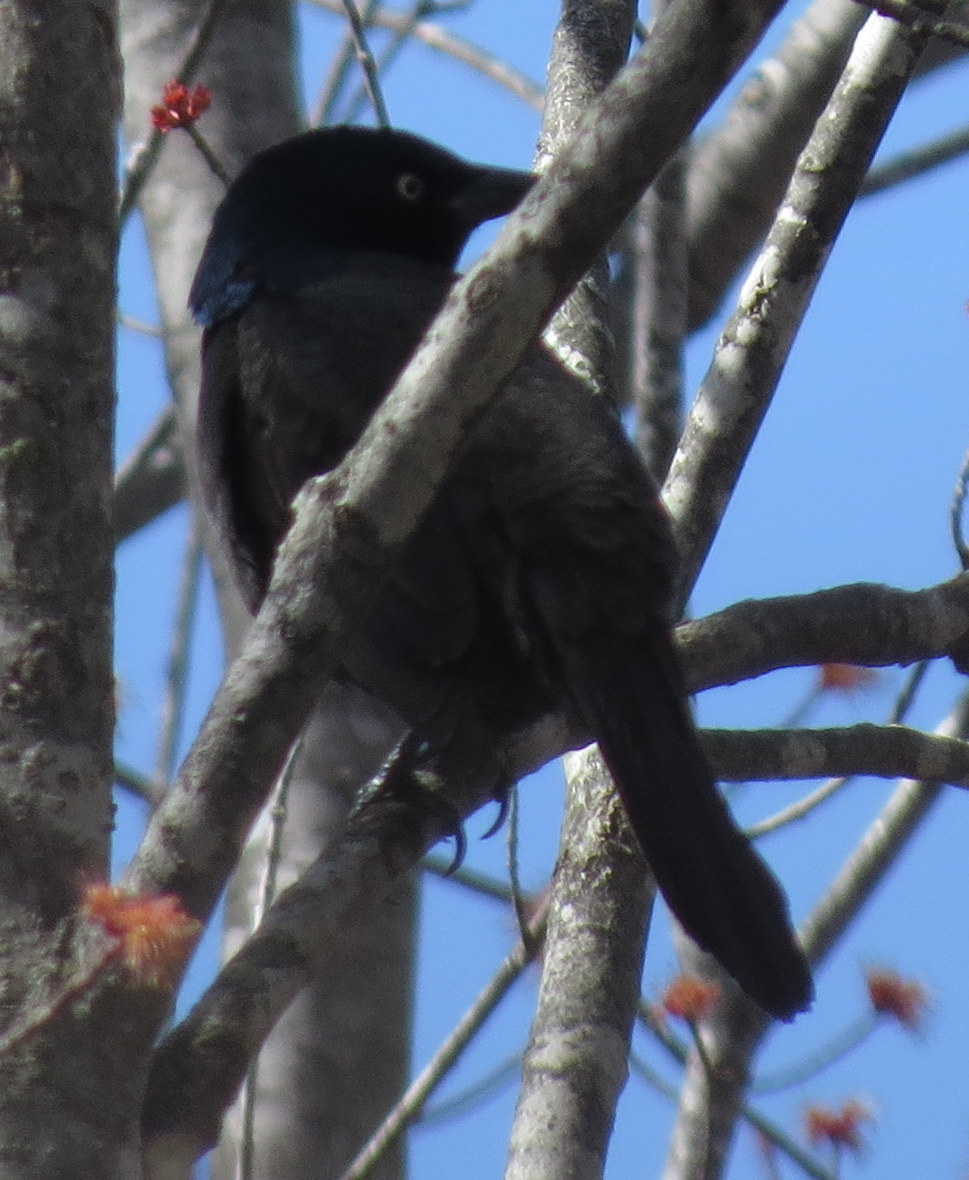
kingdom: Animalia
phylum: Chordata
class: Aves
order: Passeriformes
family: Icteridae
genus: Quiscalus
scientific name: Quiscalus quiscula
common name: Common grackle
